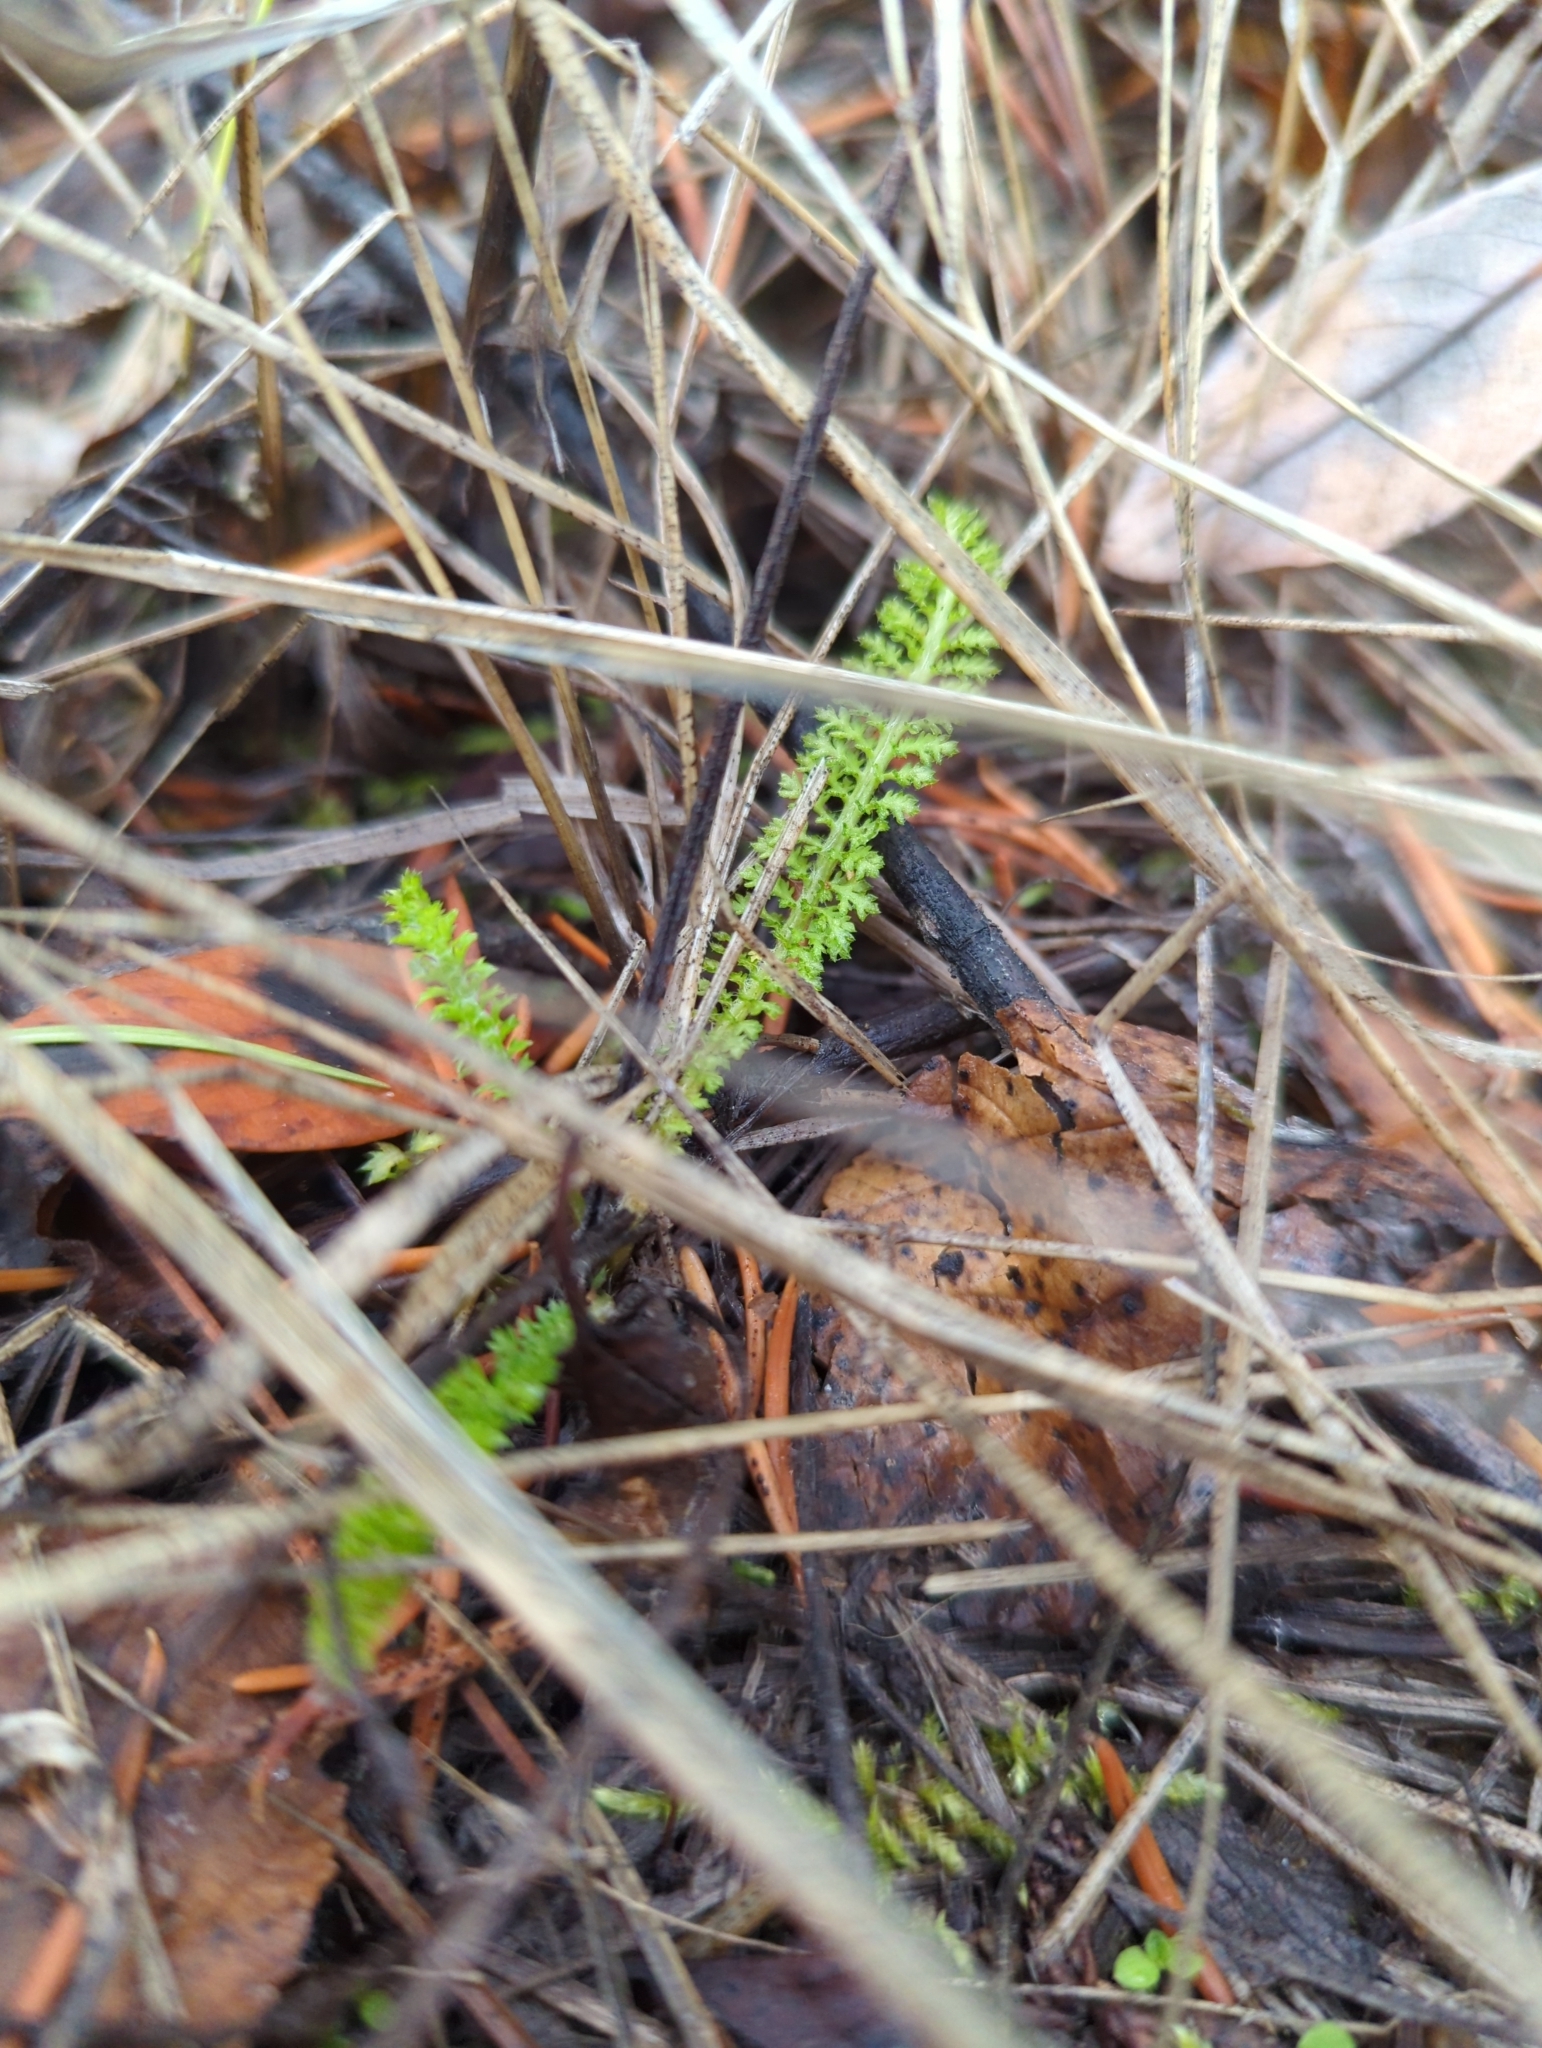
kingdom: Plantae
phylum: Tracheophyta
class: Magnoliopsida
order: Asterales
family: Asteraceae
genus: Achillea
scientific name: Achillea millefolium
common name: Yarrow
